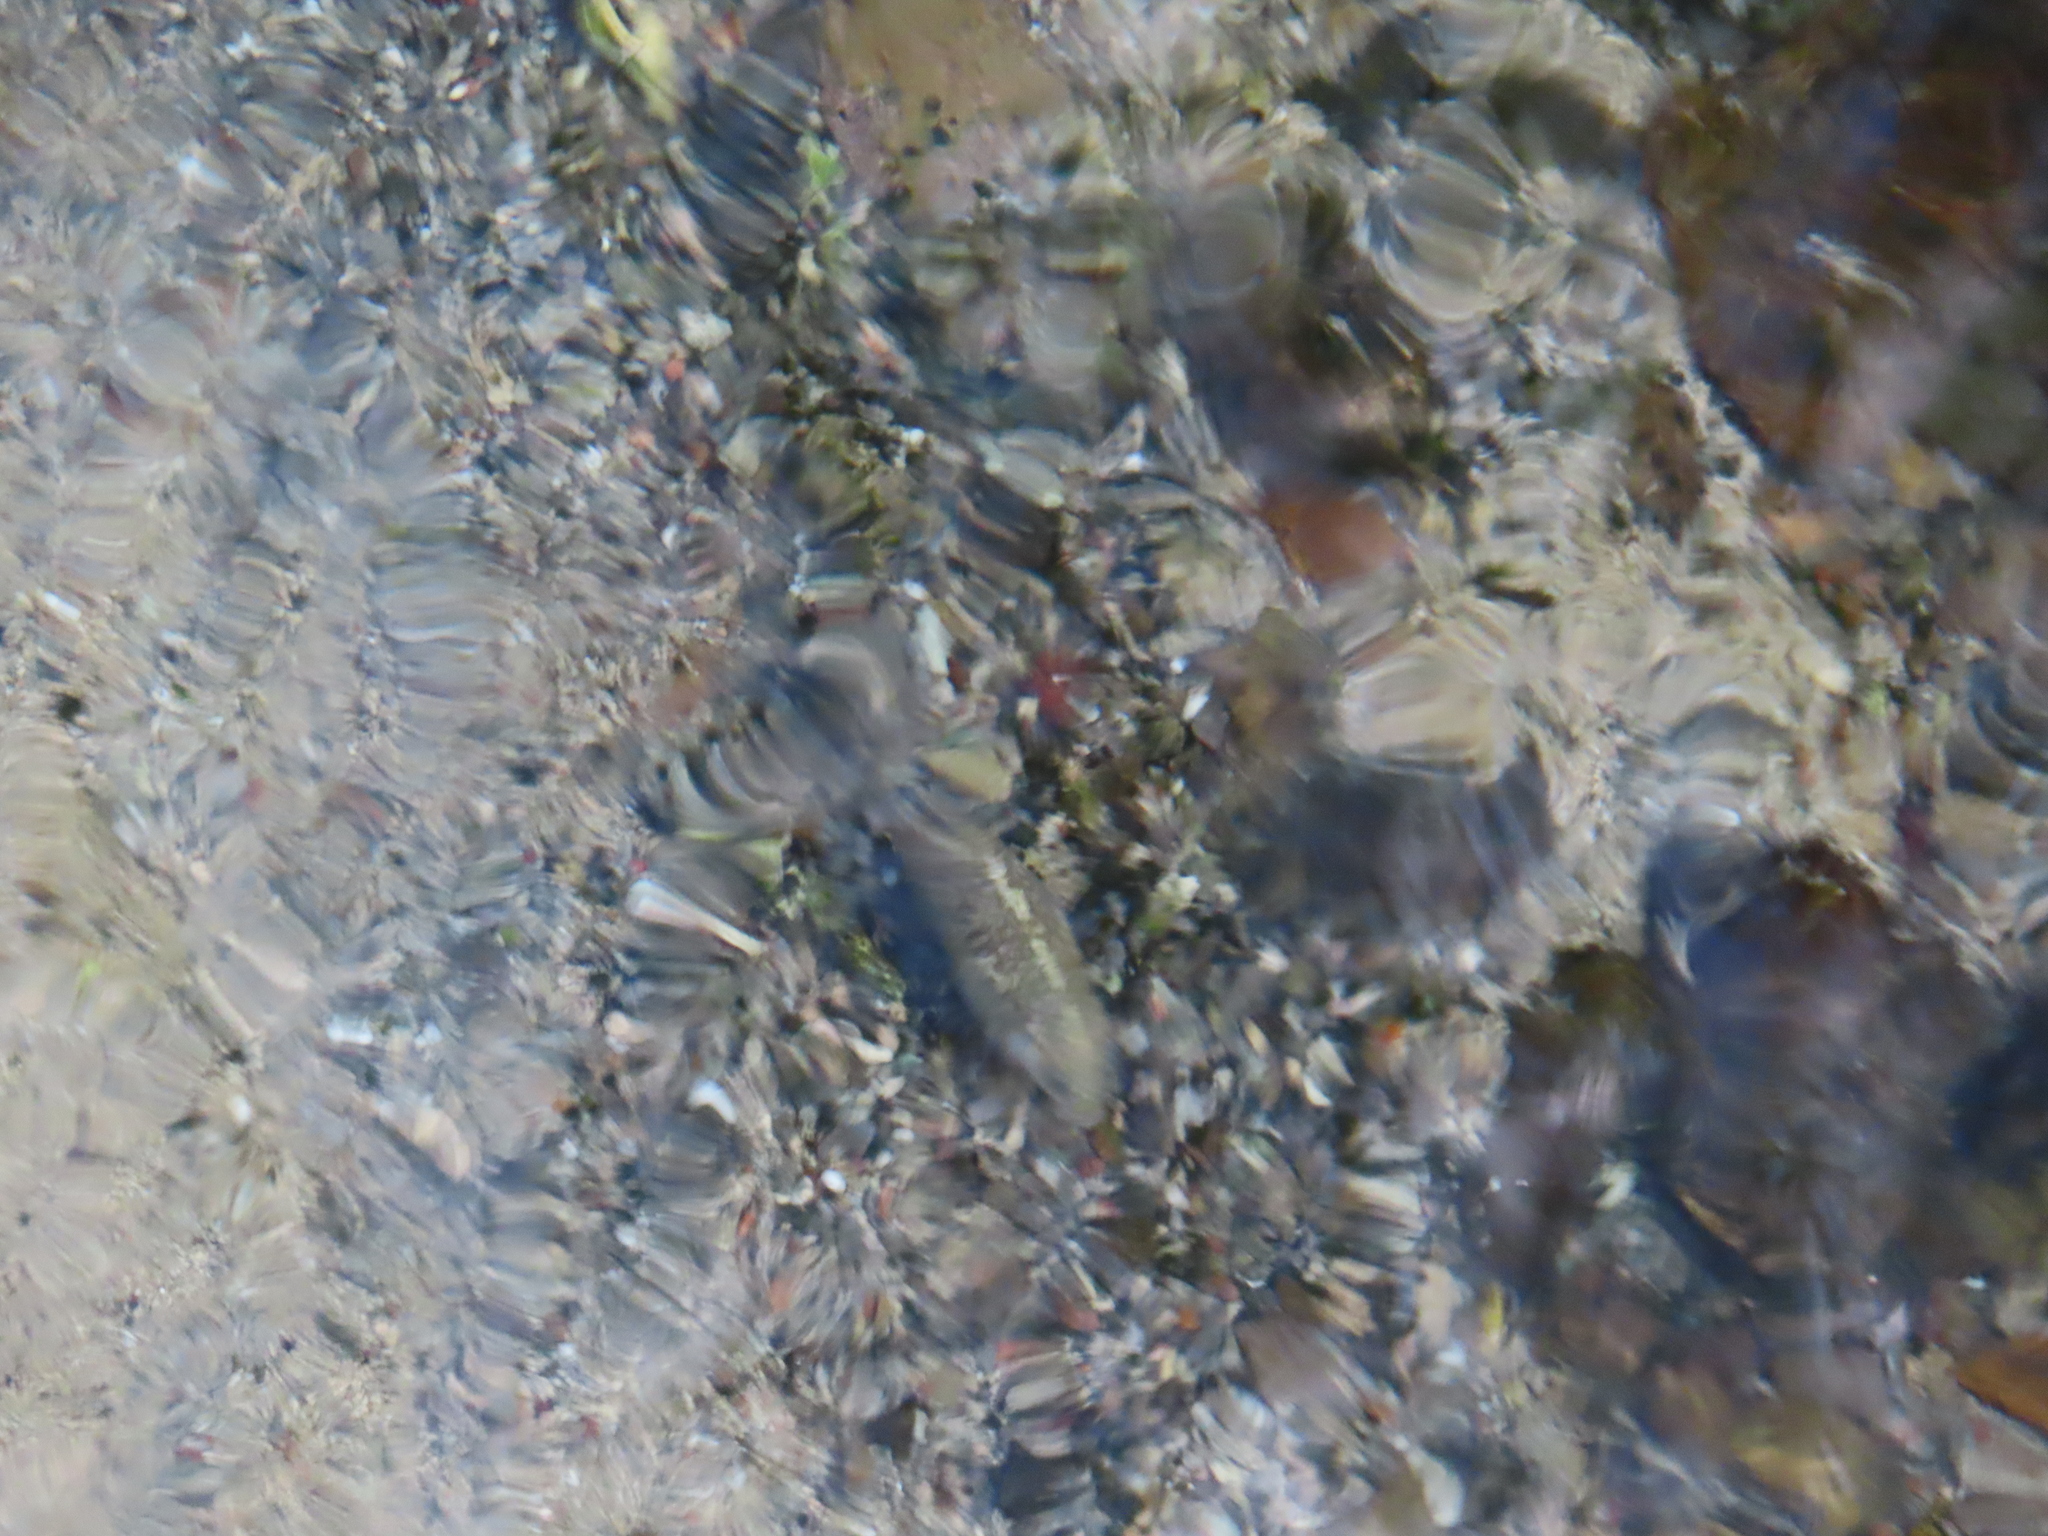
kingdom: Animalia
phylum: Chordata
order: Cyprinodontiformes
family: Cyprinodontidae
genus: Cyprinodon
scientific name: Cyprinodon nevadensis
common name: Amargosa pupfish
